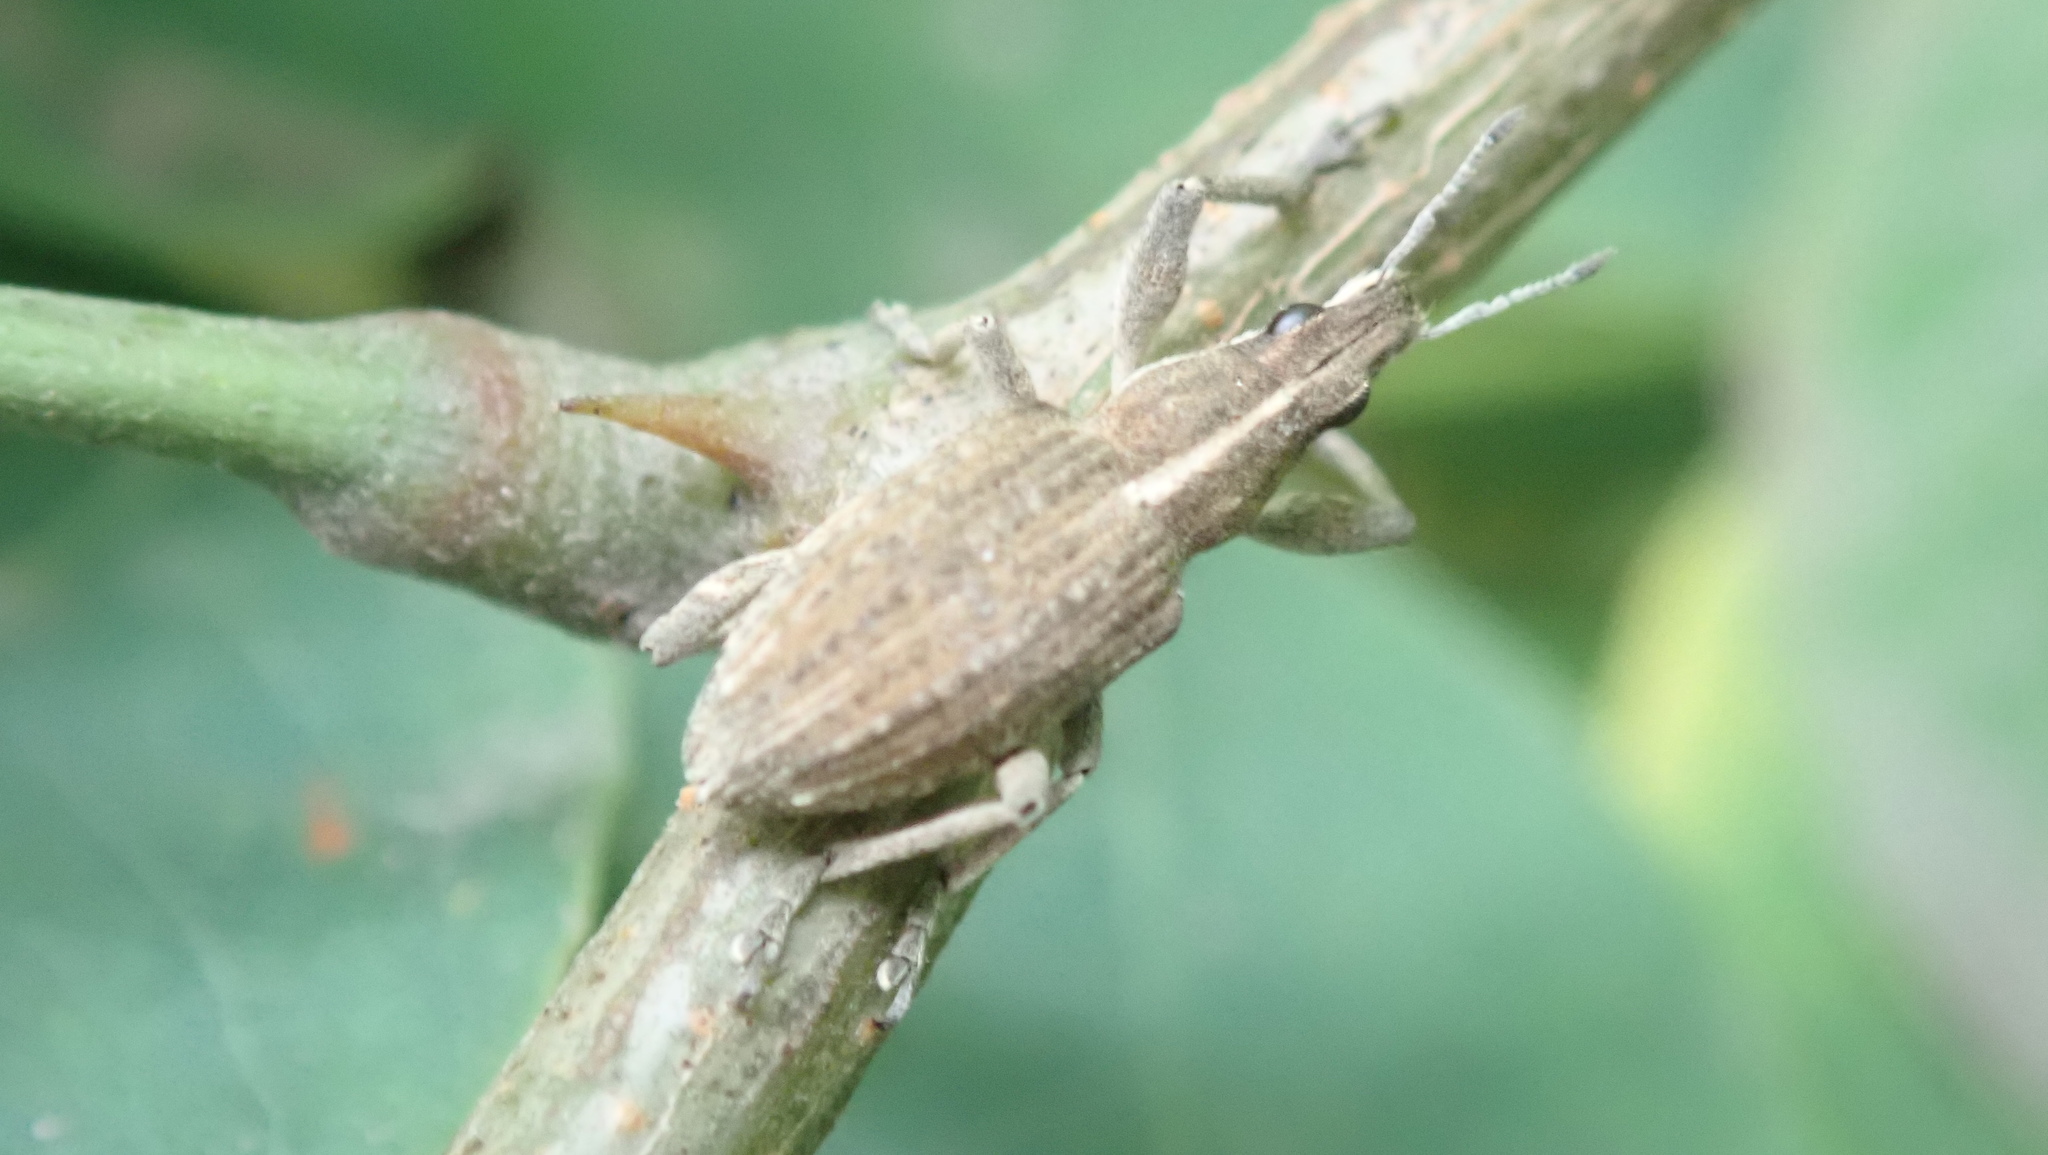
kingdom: Animalia
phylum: Arthropoda
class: Insecta
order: Coleoptera
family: Curculionidae
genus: Charagmus
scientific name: Charagmus gressorius
